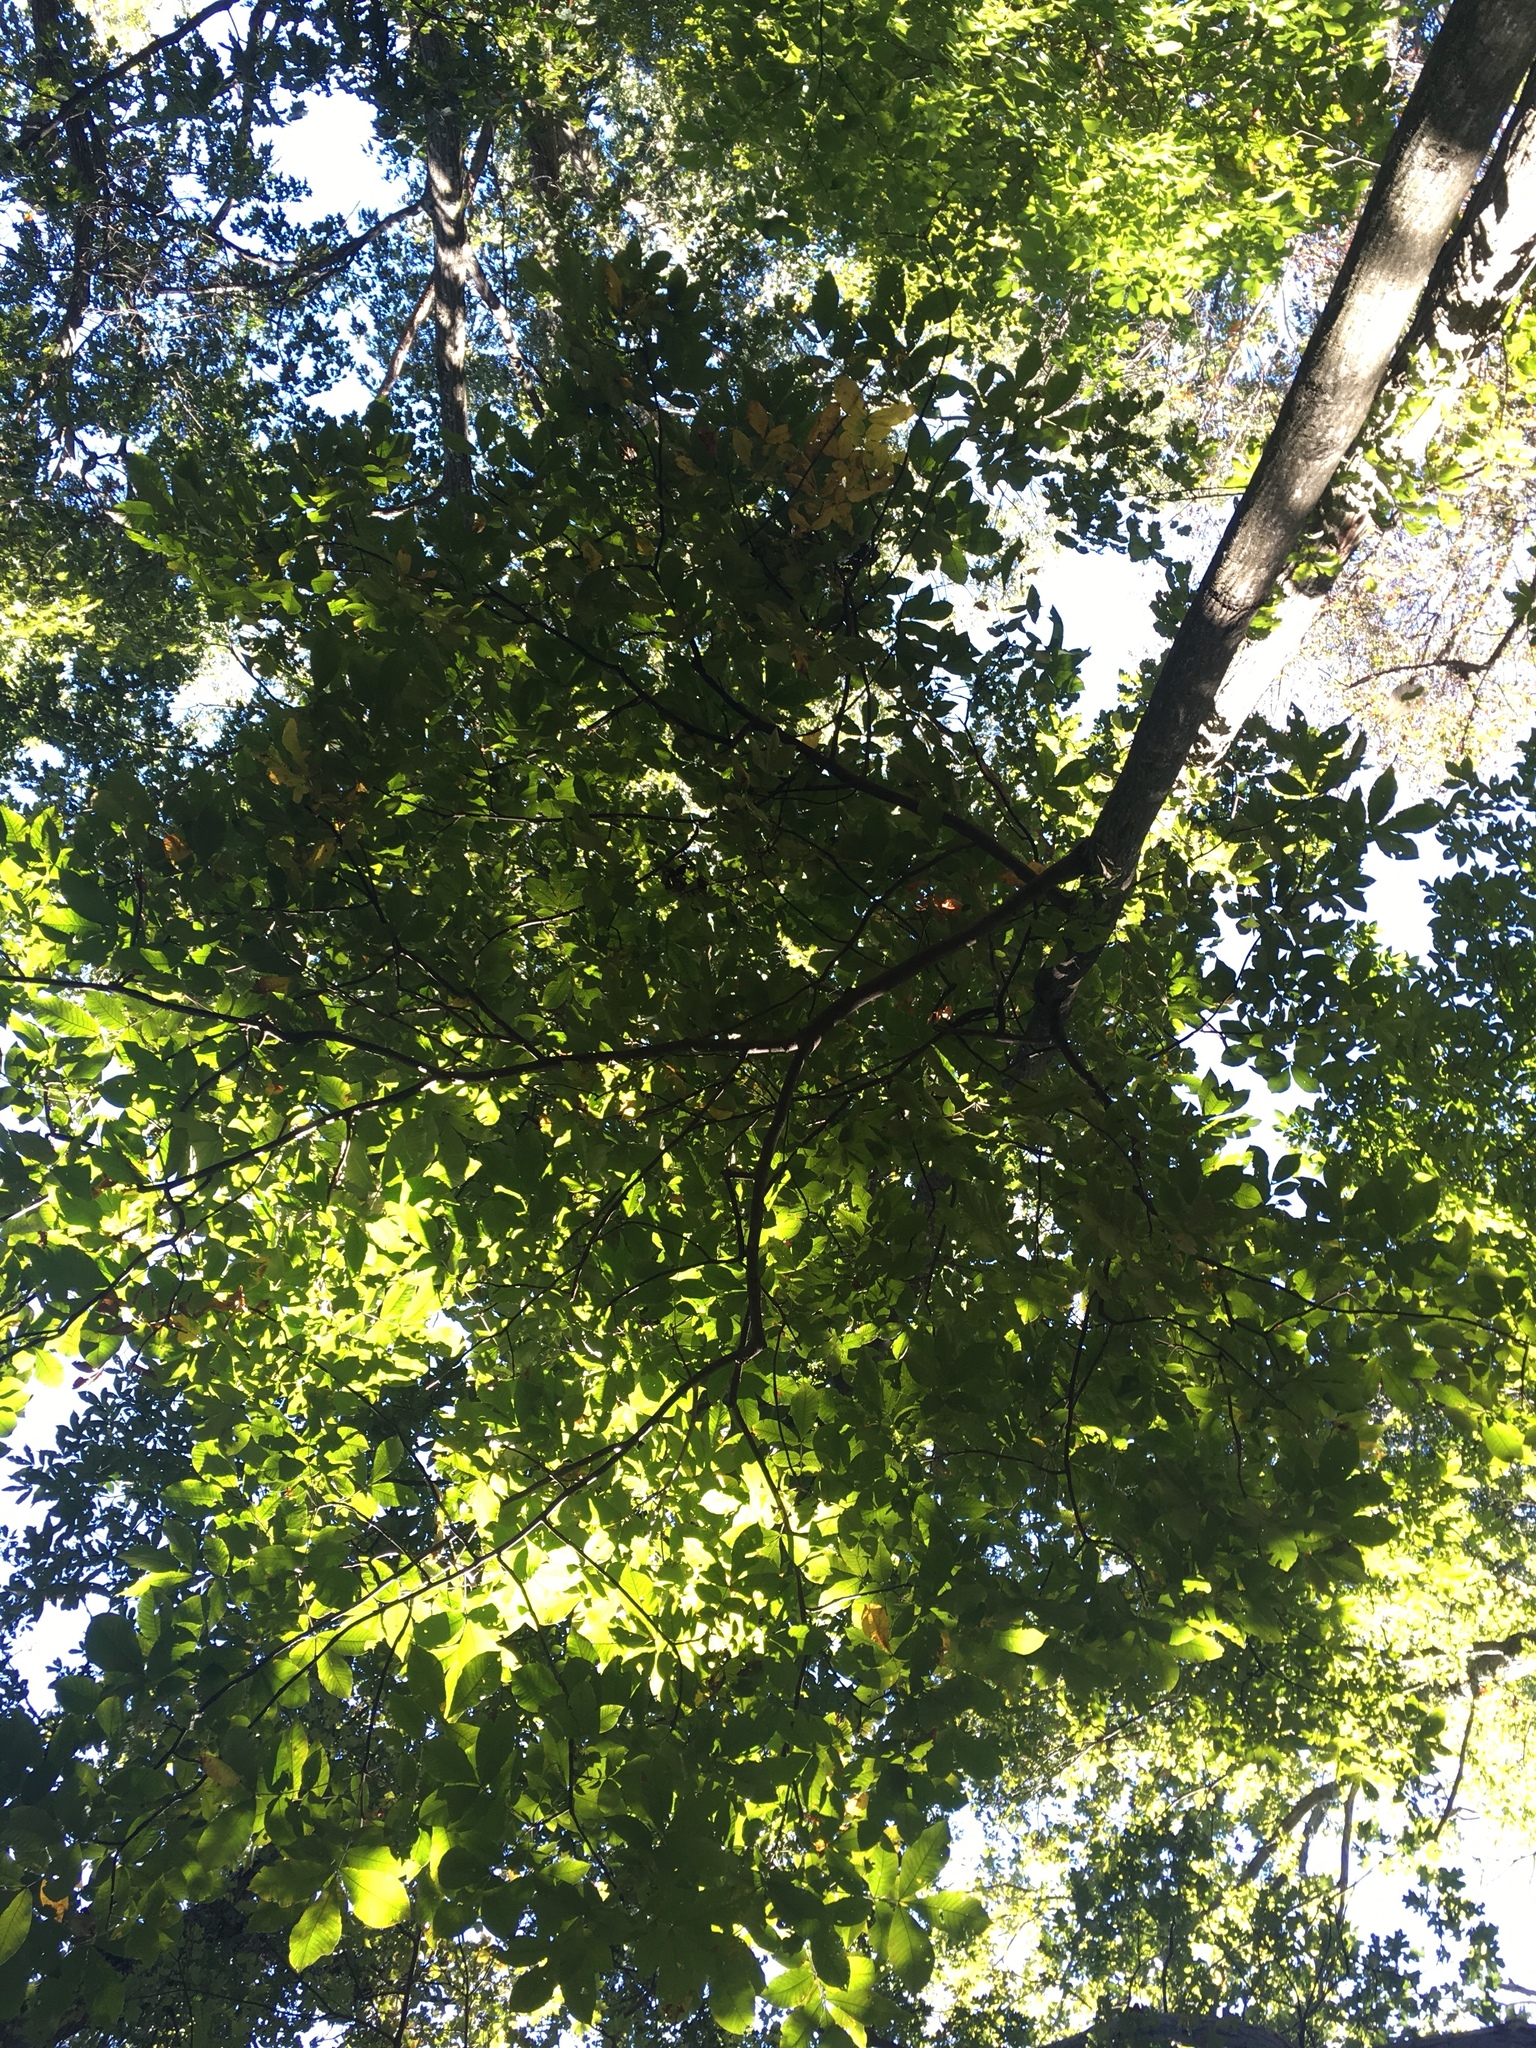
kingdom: Plantae
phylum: Tracheophyta
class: Magnoliopsida
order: Fagales
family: Juglandaceae
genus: Carya
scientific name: Carya glabra
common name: Pignut hickory
